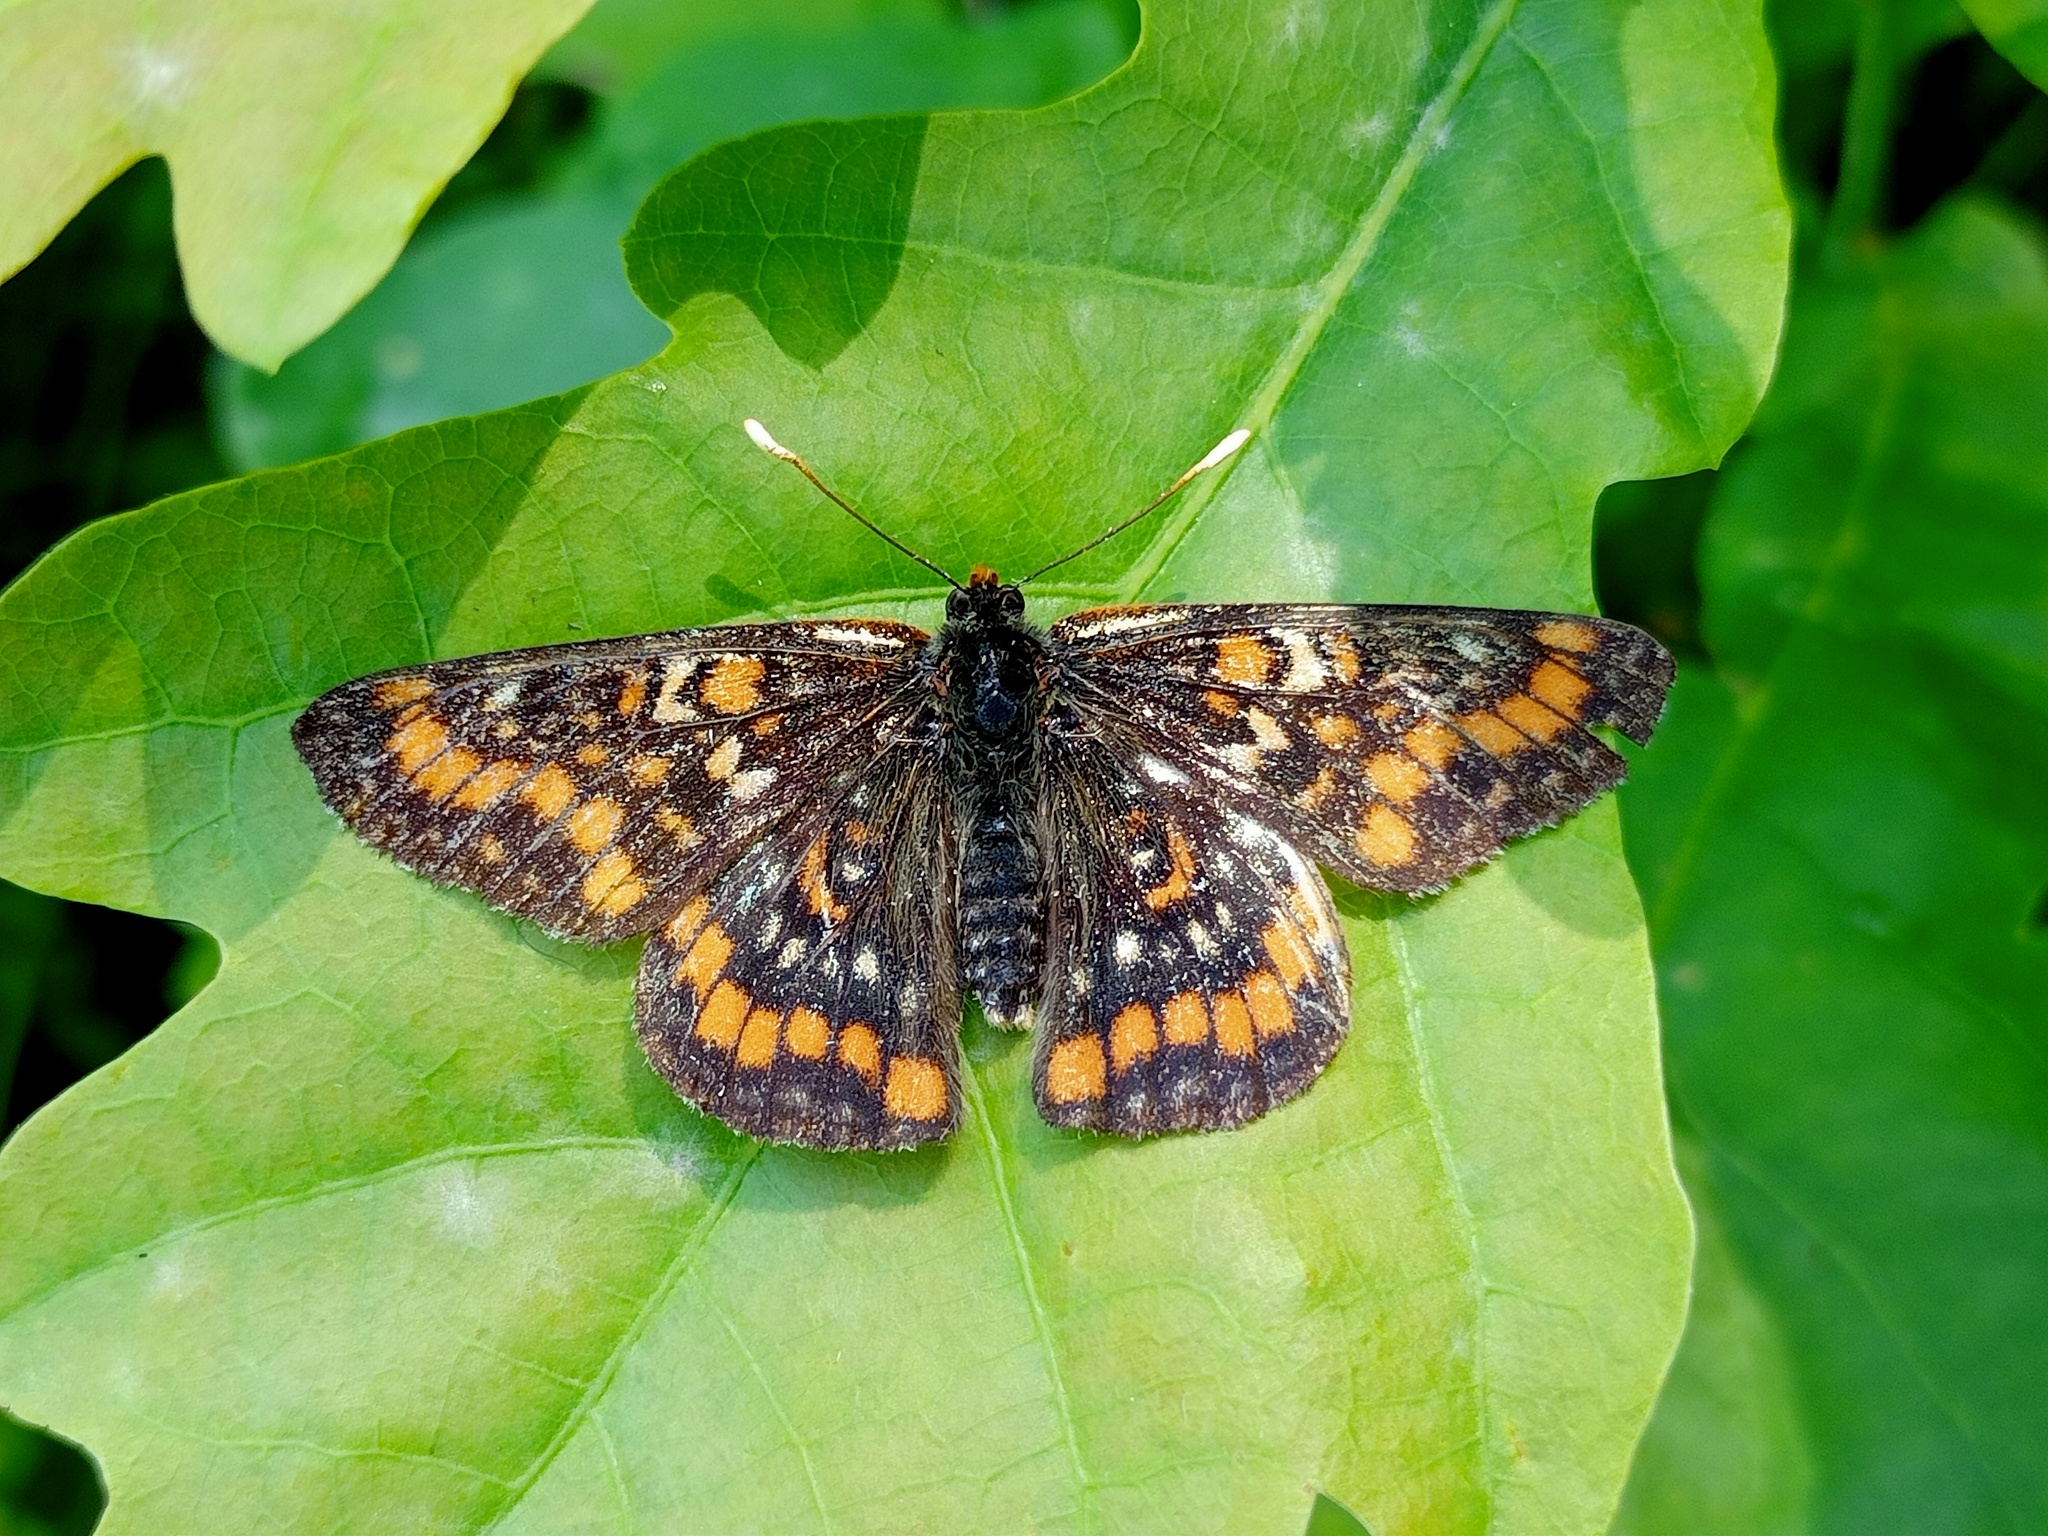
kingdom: Animalia
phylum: Arthropoda
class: Insecta
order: Lepidoptera
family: Nymphalidae
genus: Euphydryas
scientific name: Euphydryas maturna
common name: Scarce fritillary
